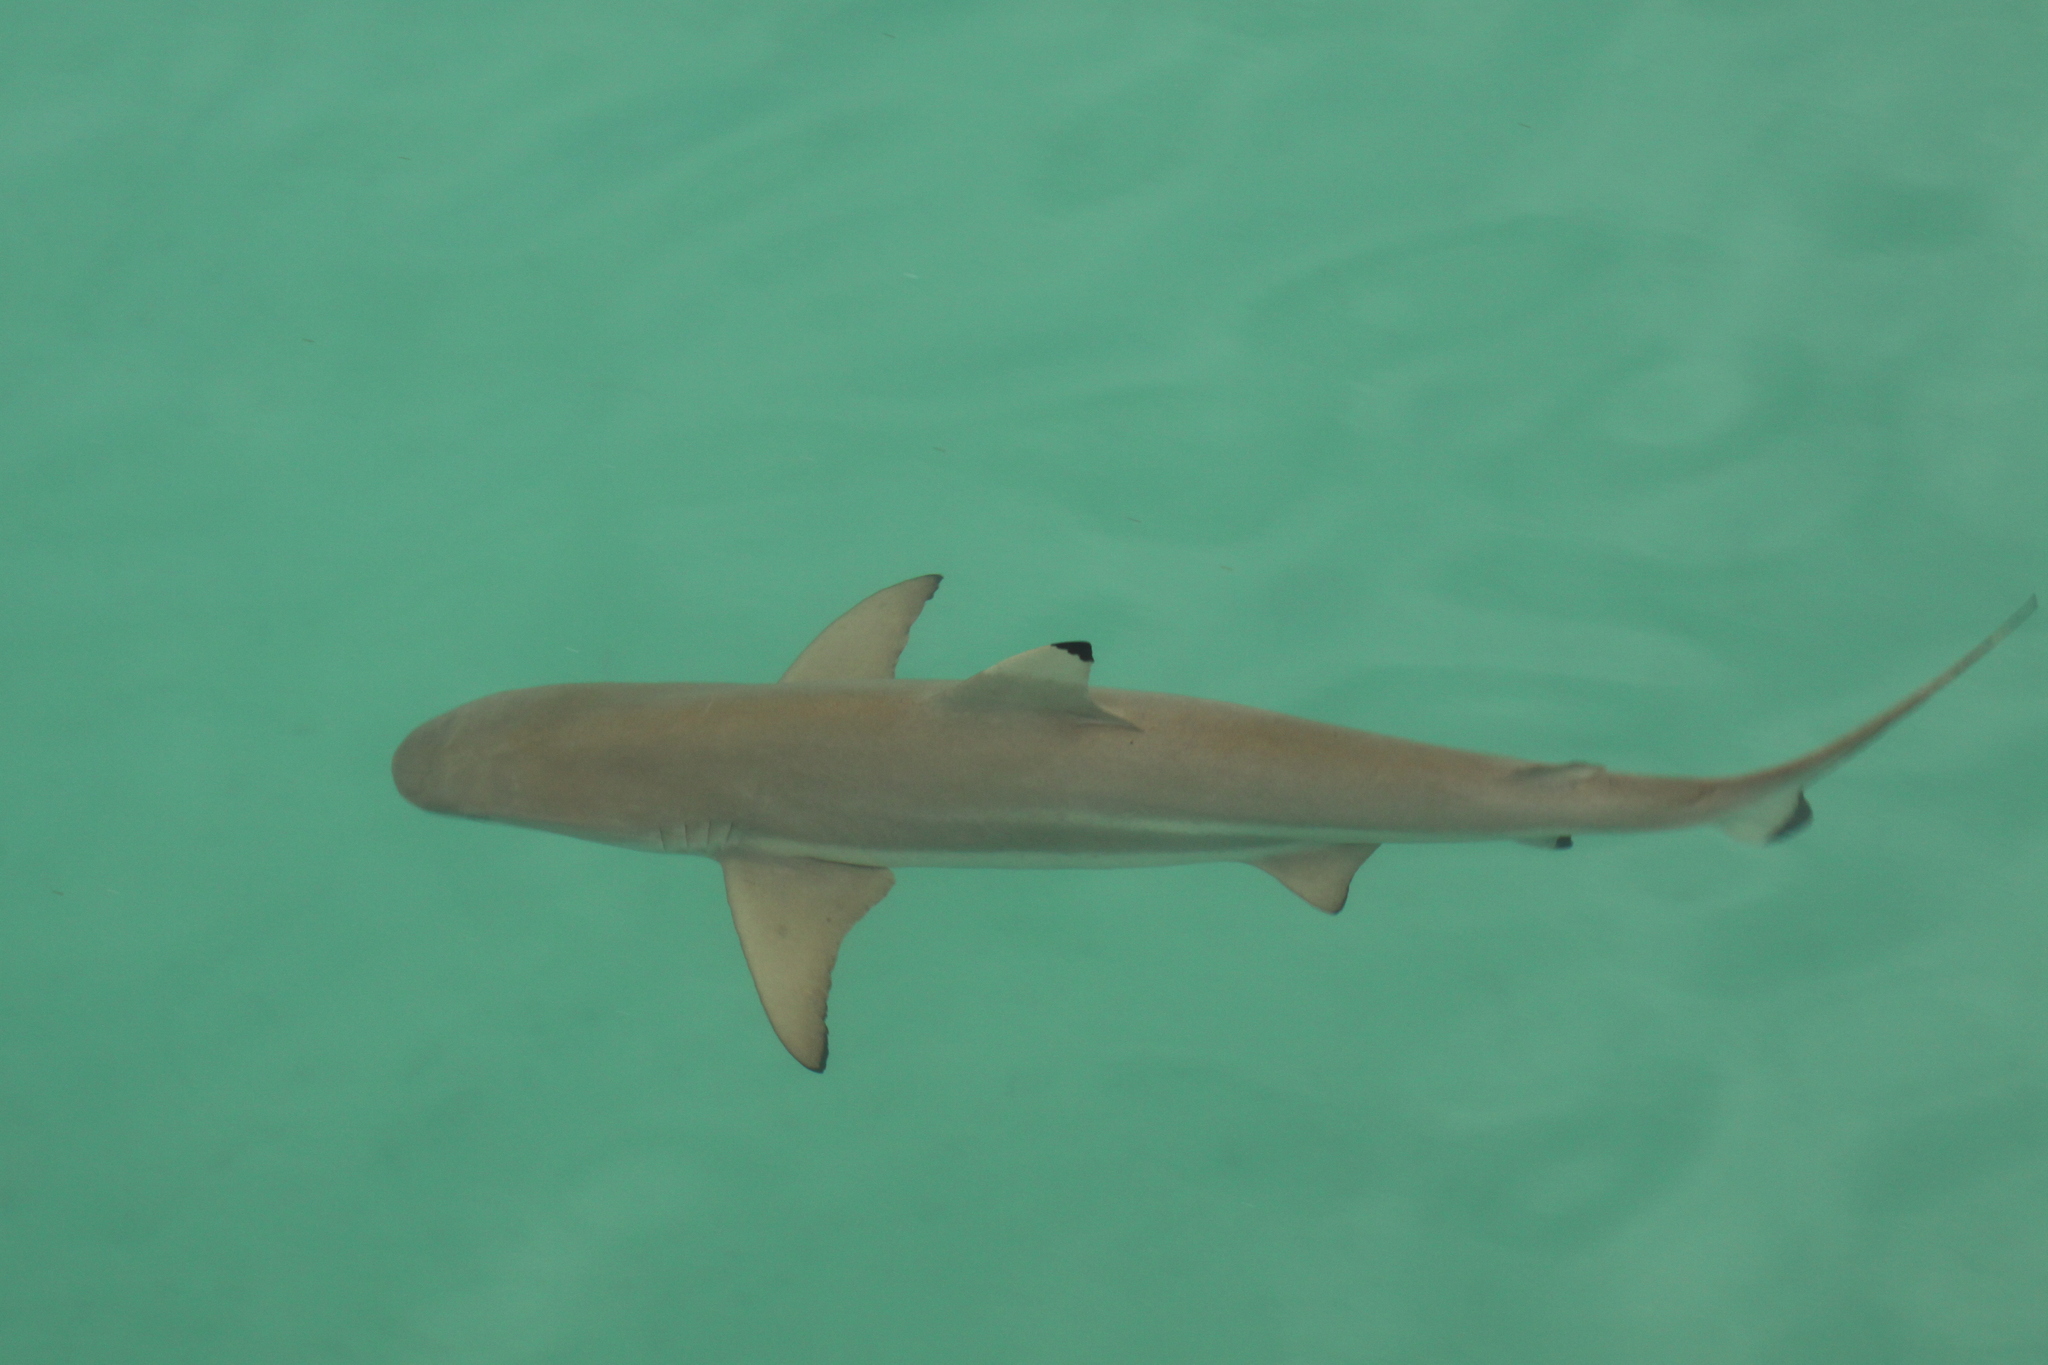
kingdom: Animalia
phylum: Chordata
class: Elasmobranchii
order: Carcharhiniformes
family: Carcharhinidae
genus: Carcharhinus
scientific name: Carcharhinus melanopterus
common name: Blacktip reef shark
